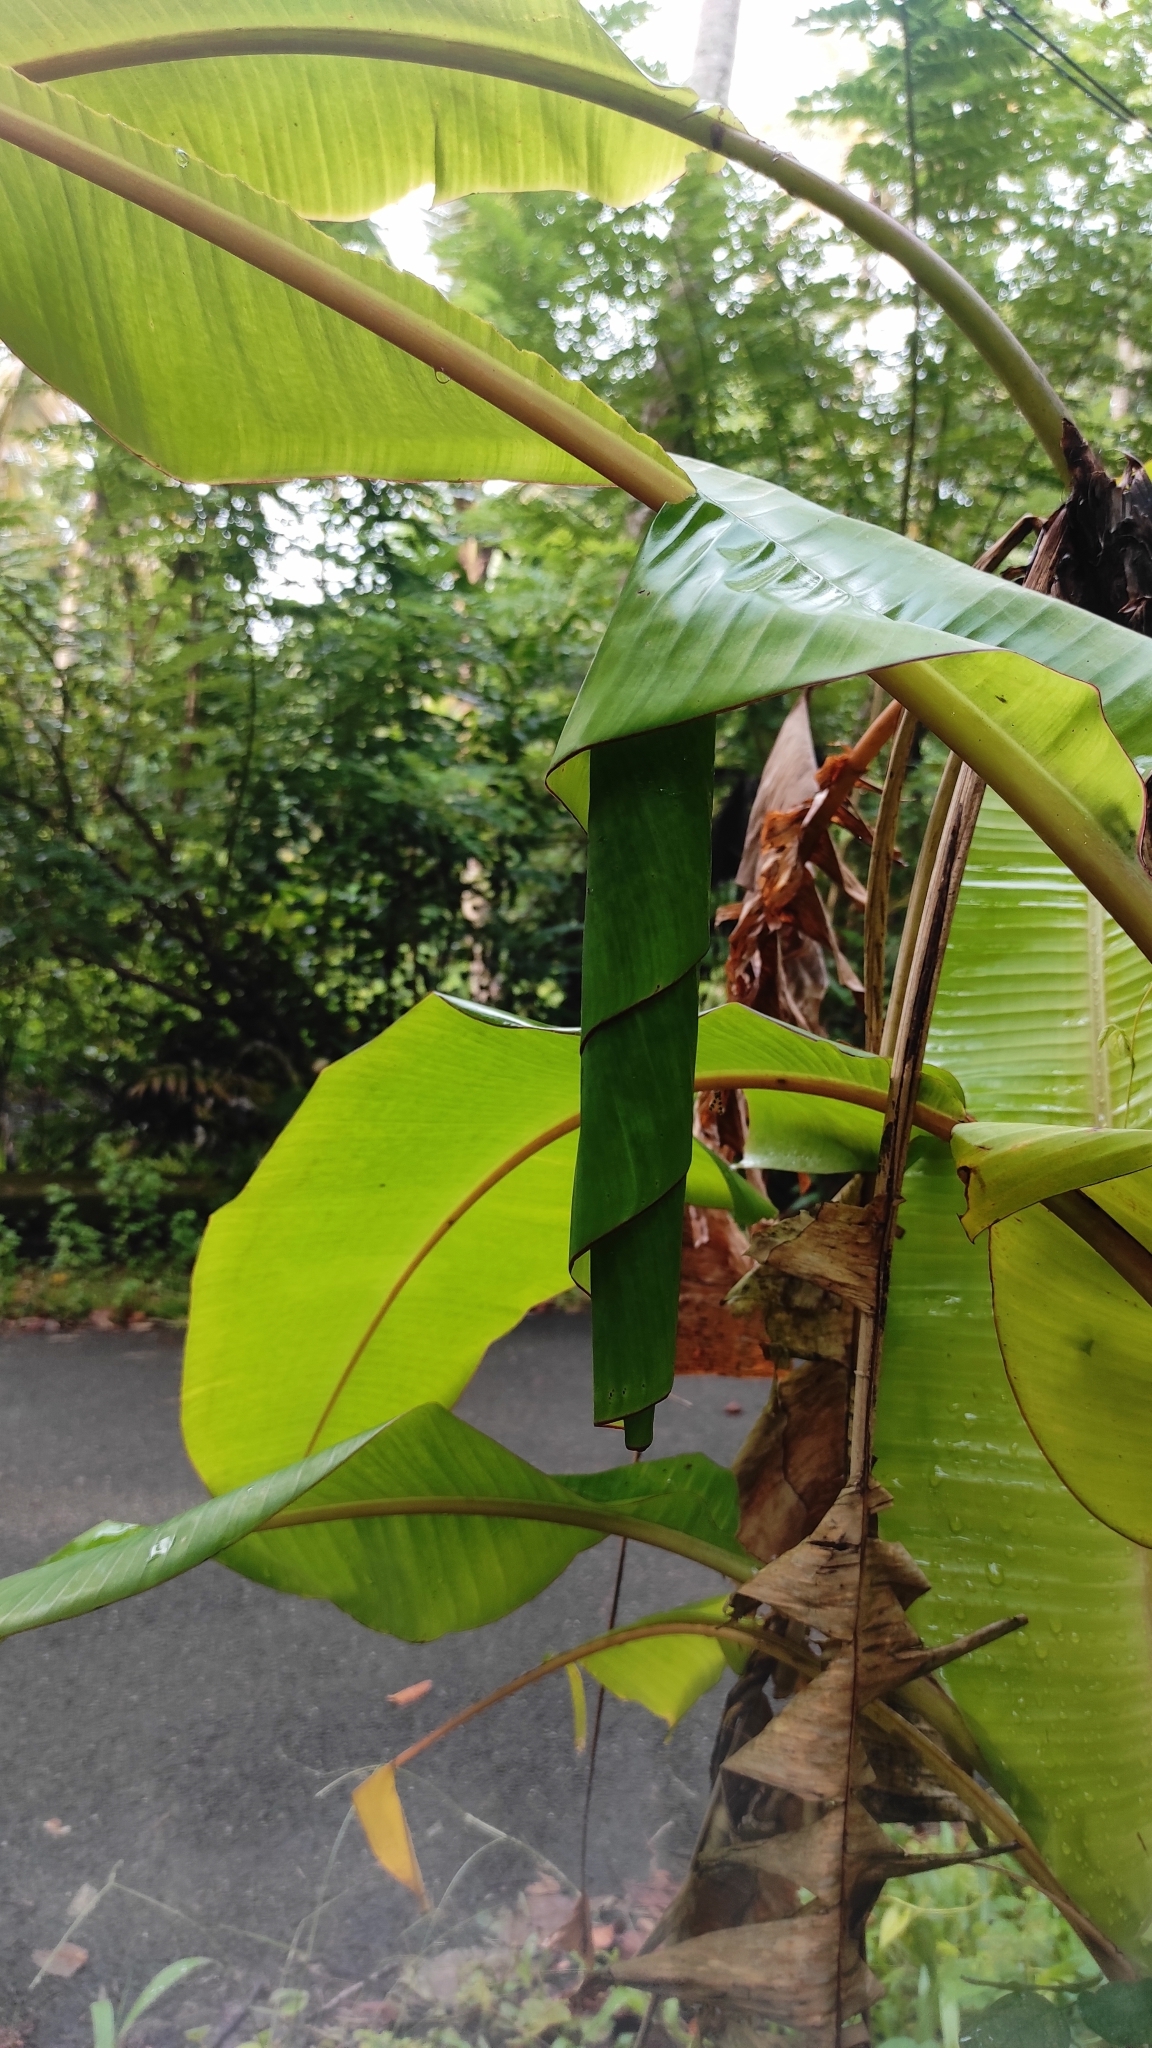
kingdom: Animalia
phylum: Arthropoda
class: Insecta
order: Lepidoptera
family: Hesperiidae
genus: Erionota
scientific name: Erionota thrax
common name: Banana skipper
